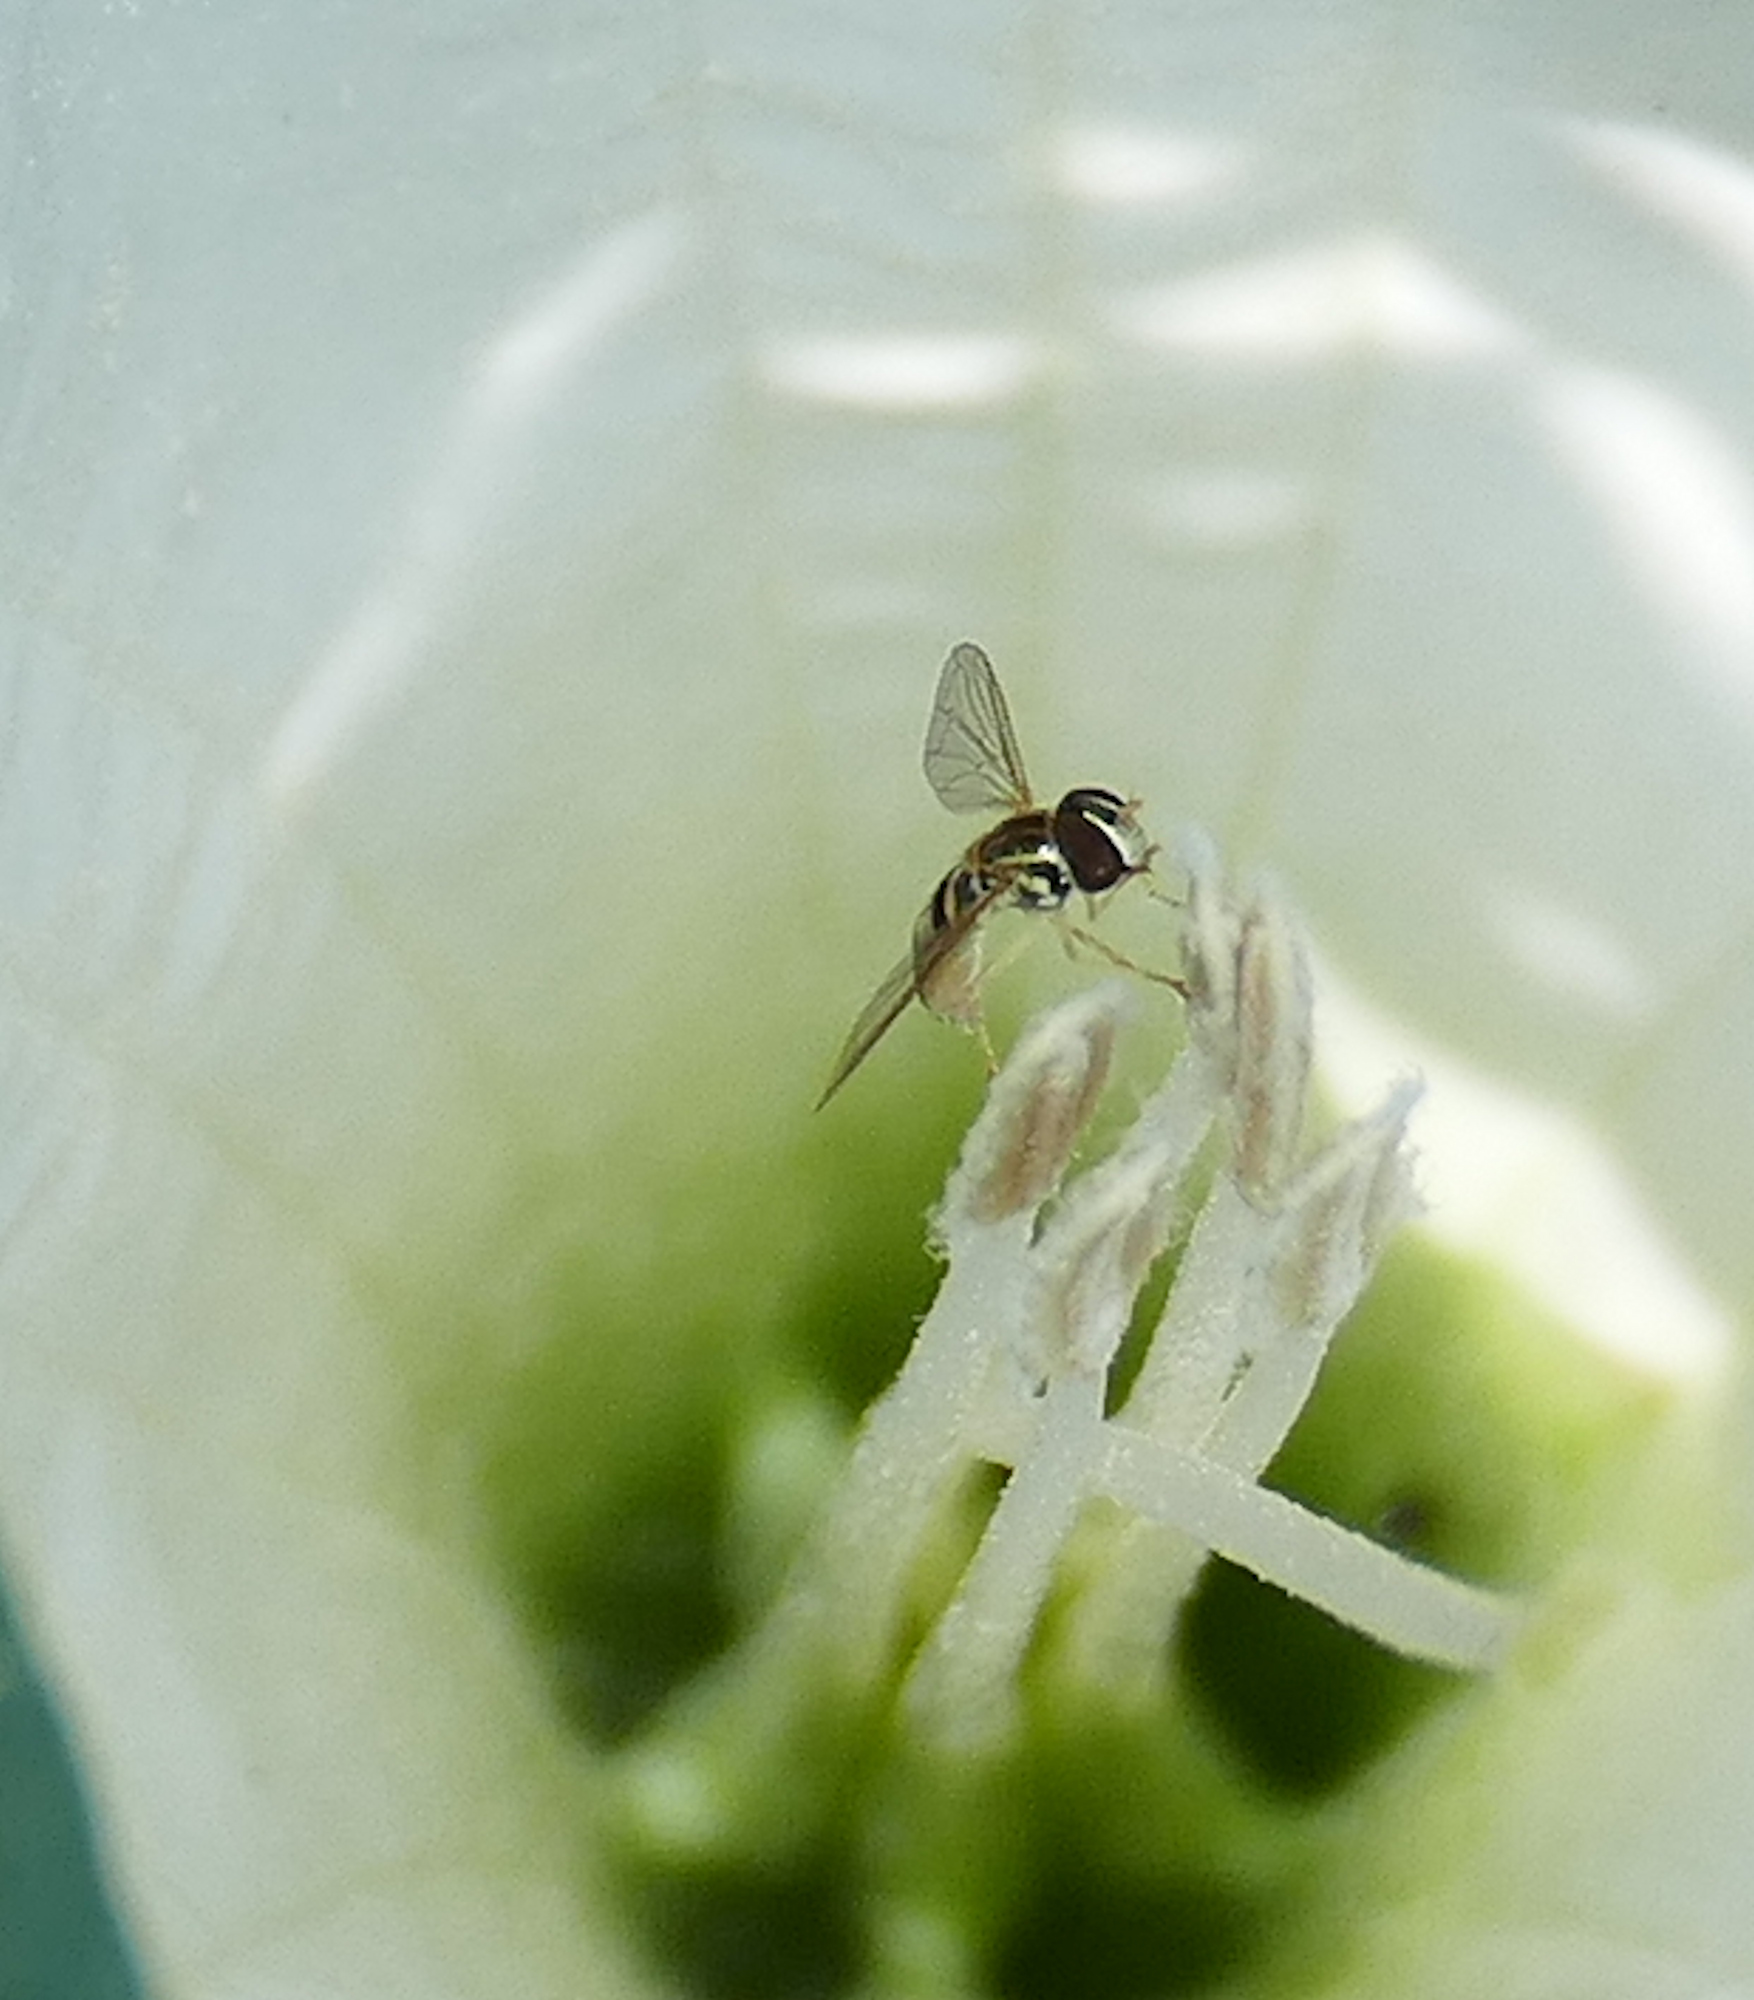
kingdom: Animalia
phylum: Arthropoda
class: Insecta
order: Diptera
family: Syrphidae
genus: Toxomerus
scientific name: Toxomerus marginatus
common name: Syrphid fly
